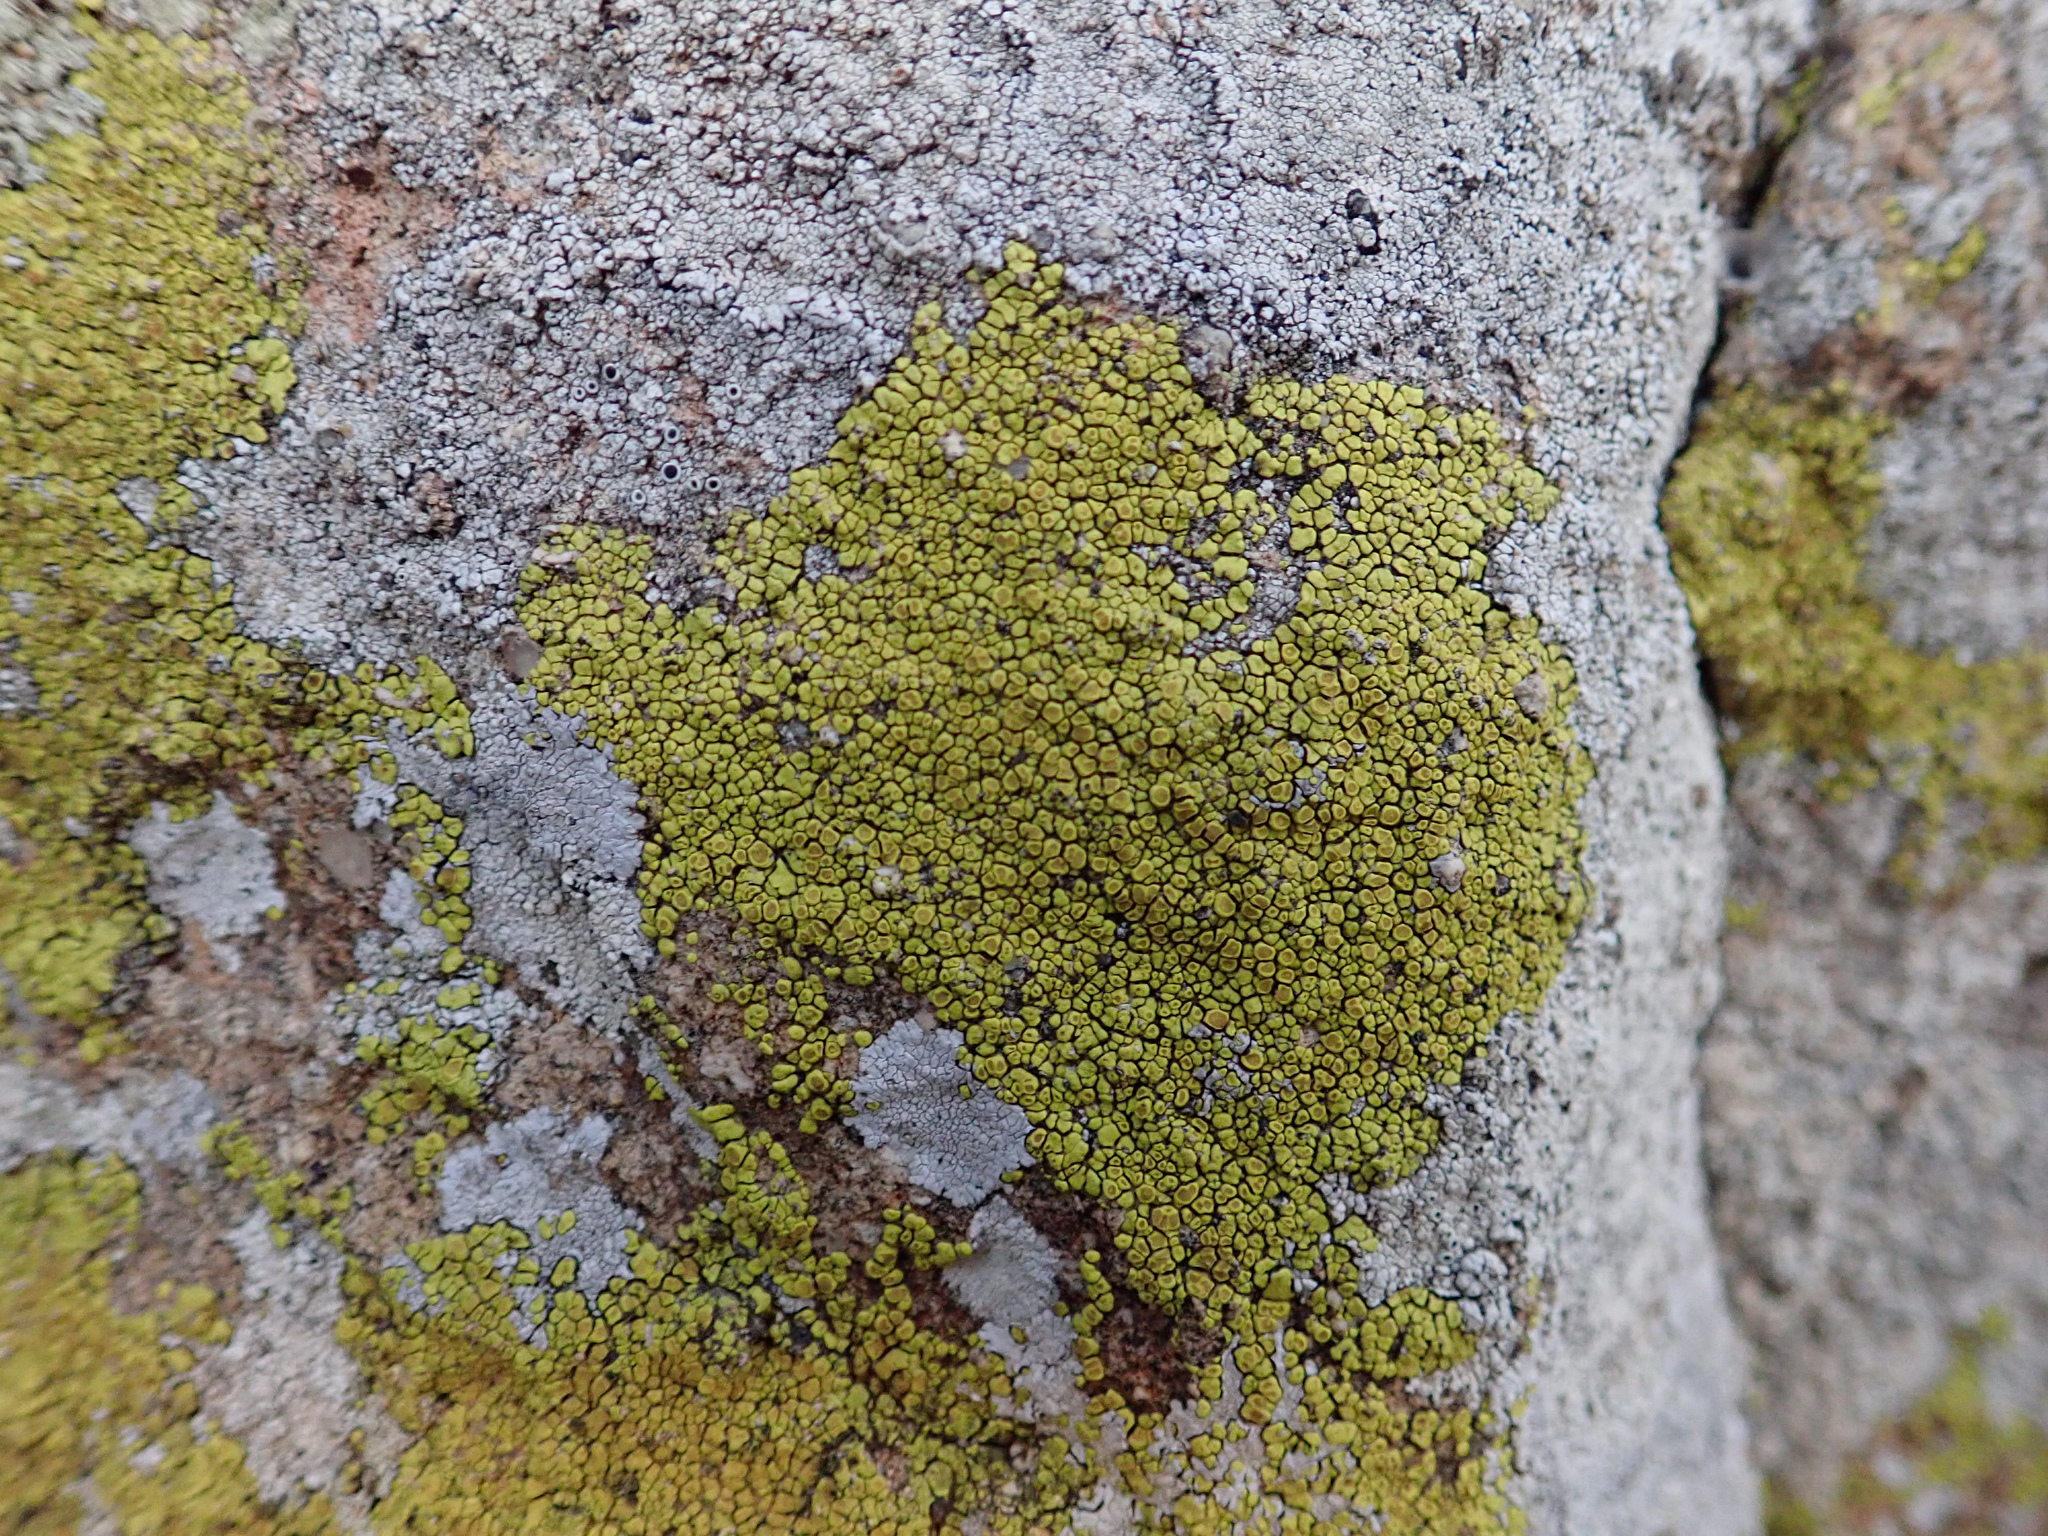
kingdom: Fungi
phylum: Ascomycota
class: Lecanoromycetes
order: Acarosporales
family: Acarosporaceae
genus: Acarospora
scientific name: Acarospora socialis
